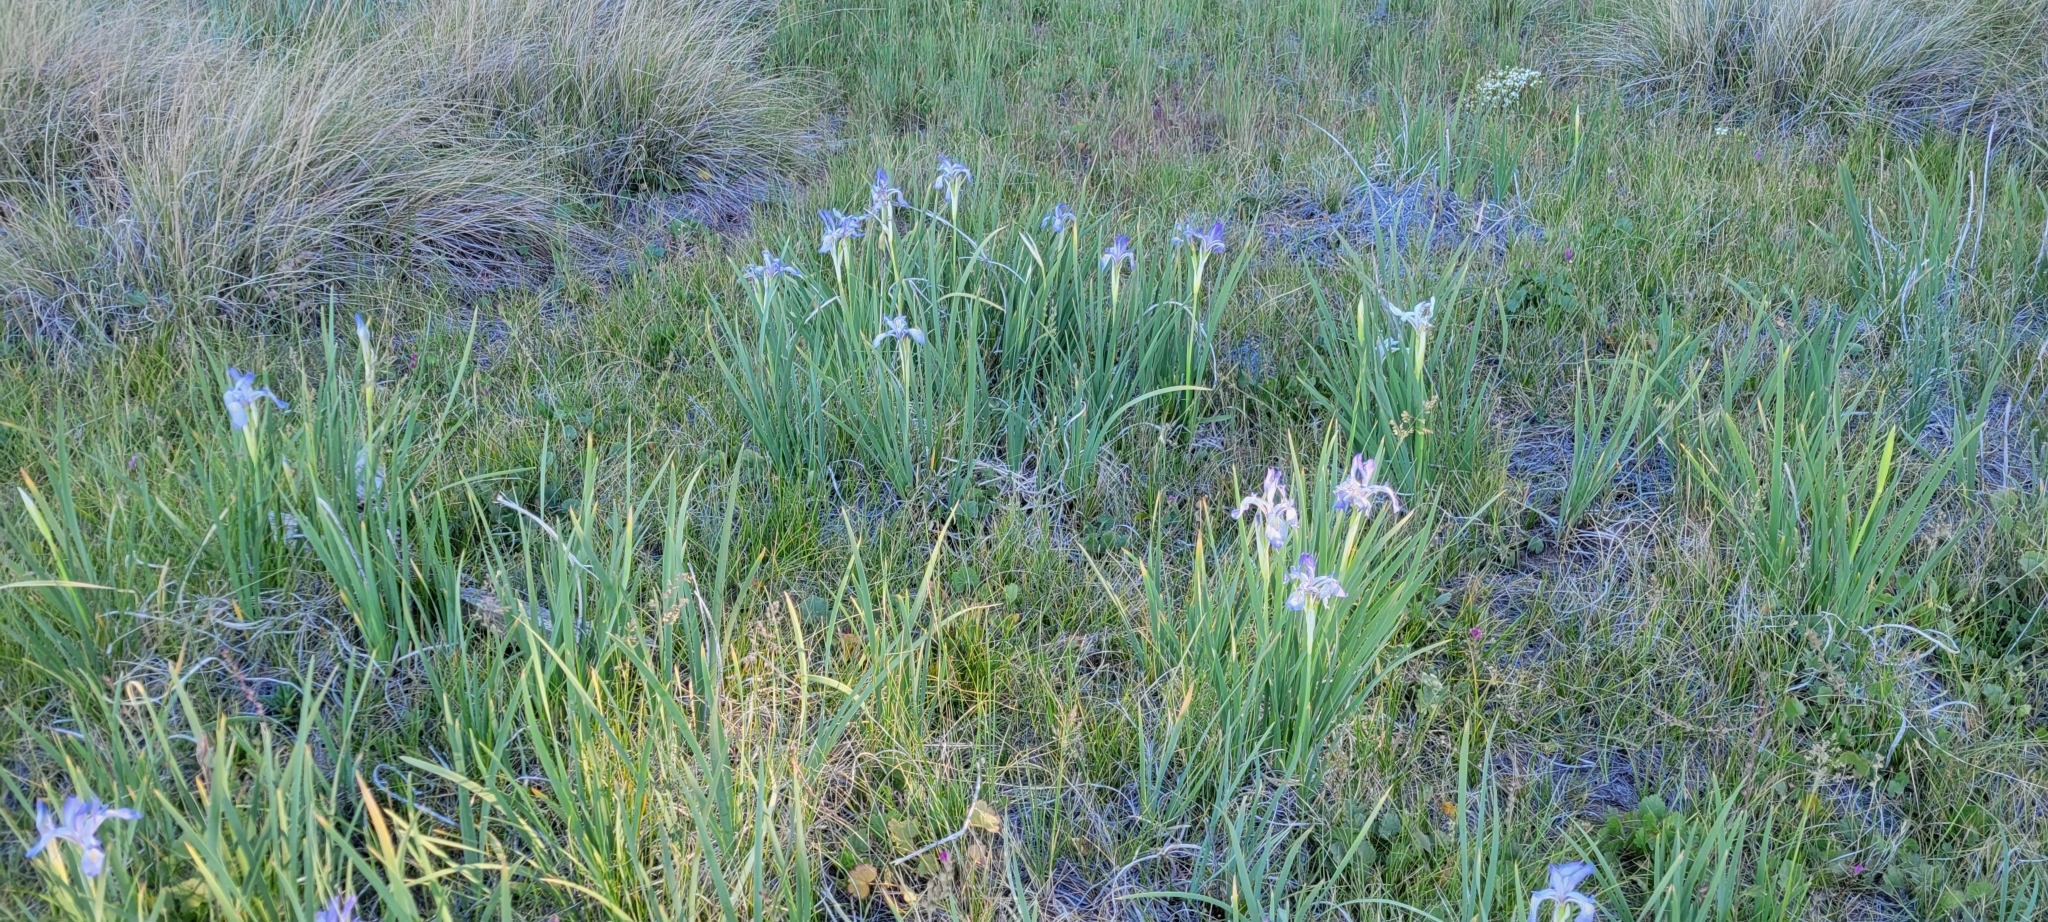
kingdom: Plantae
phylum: Tracheophyta
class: Liliopsida
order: Asparagales
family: Iridaceae
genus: Iris
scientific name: Iris missouriensis
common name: Rocky mountain iris
